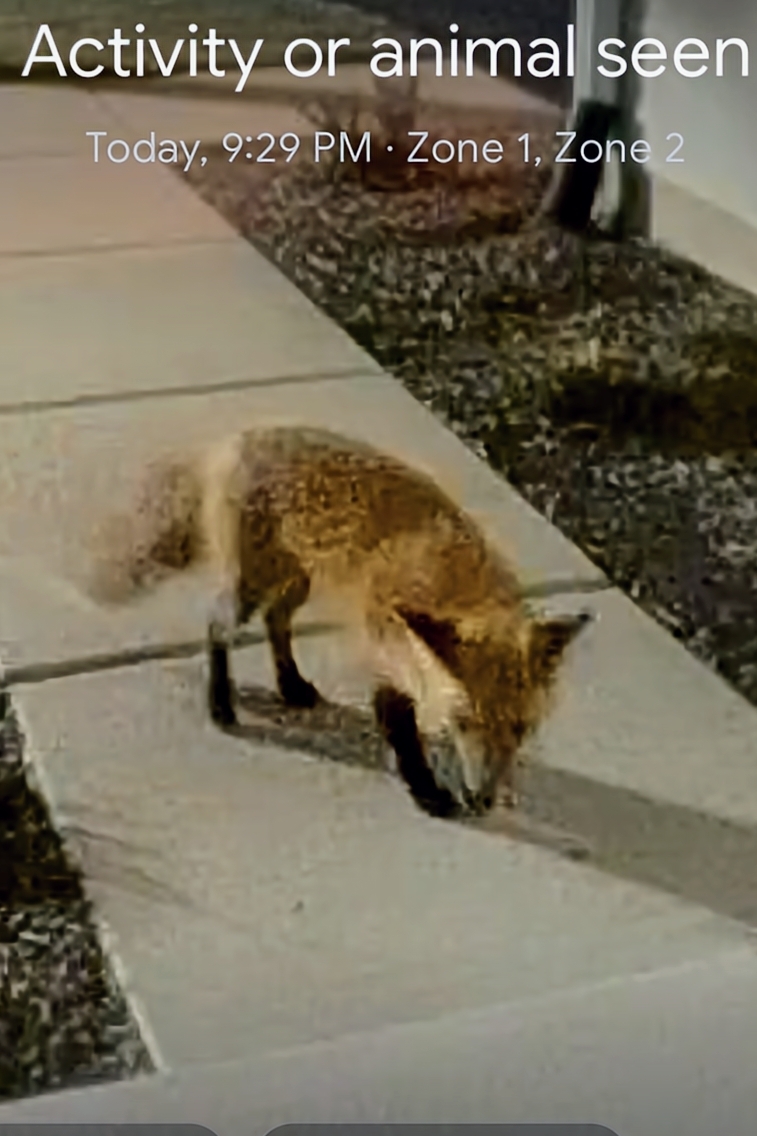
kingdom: Animalia
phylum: Chordata
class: Mammalia
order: Carnivora
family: Canidae
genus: Vulpes
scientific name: Vulpes vulpes
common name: Red fox
